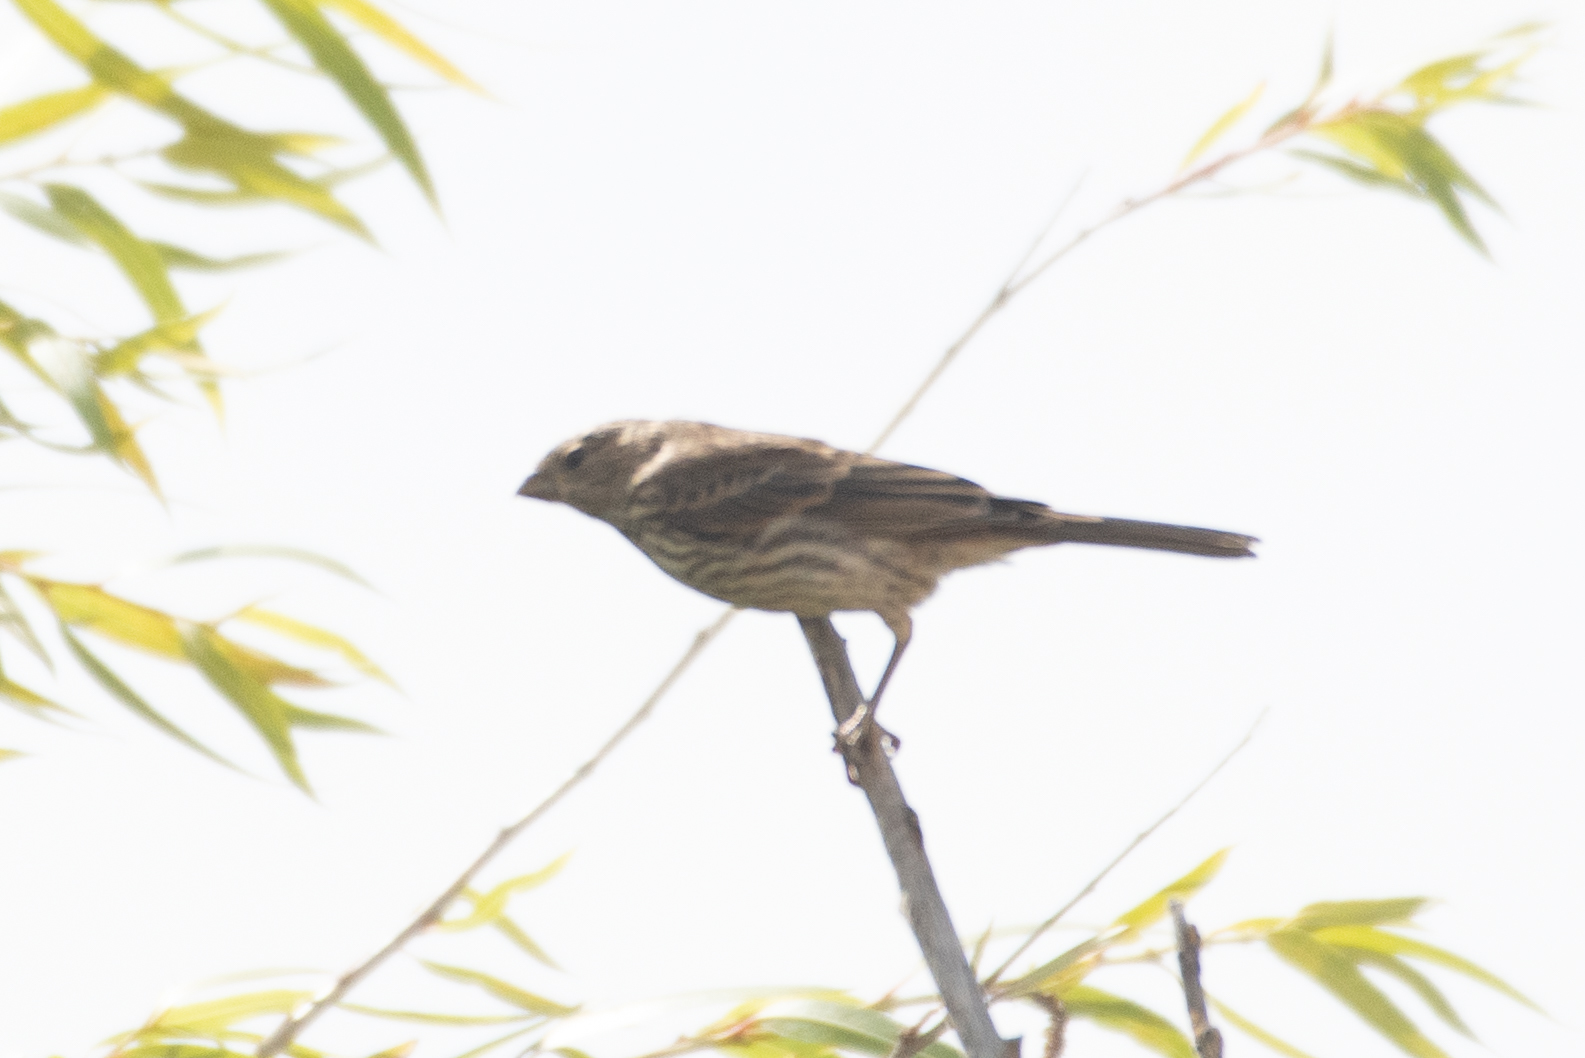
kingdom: Animalia
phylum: Chordata
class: Aves
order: Passeriformes
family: Fringillidae
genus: Haemorhous
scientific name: Haemorhous mexicanus
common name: House finch
